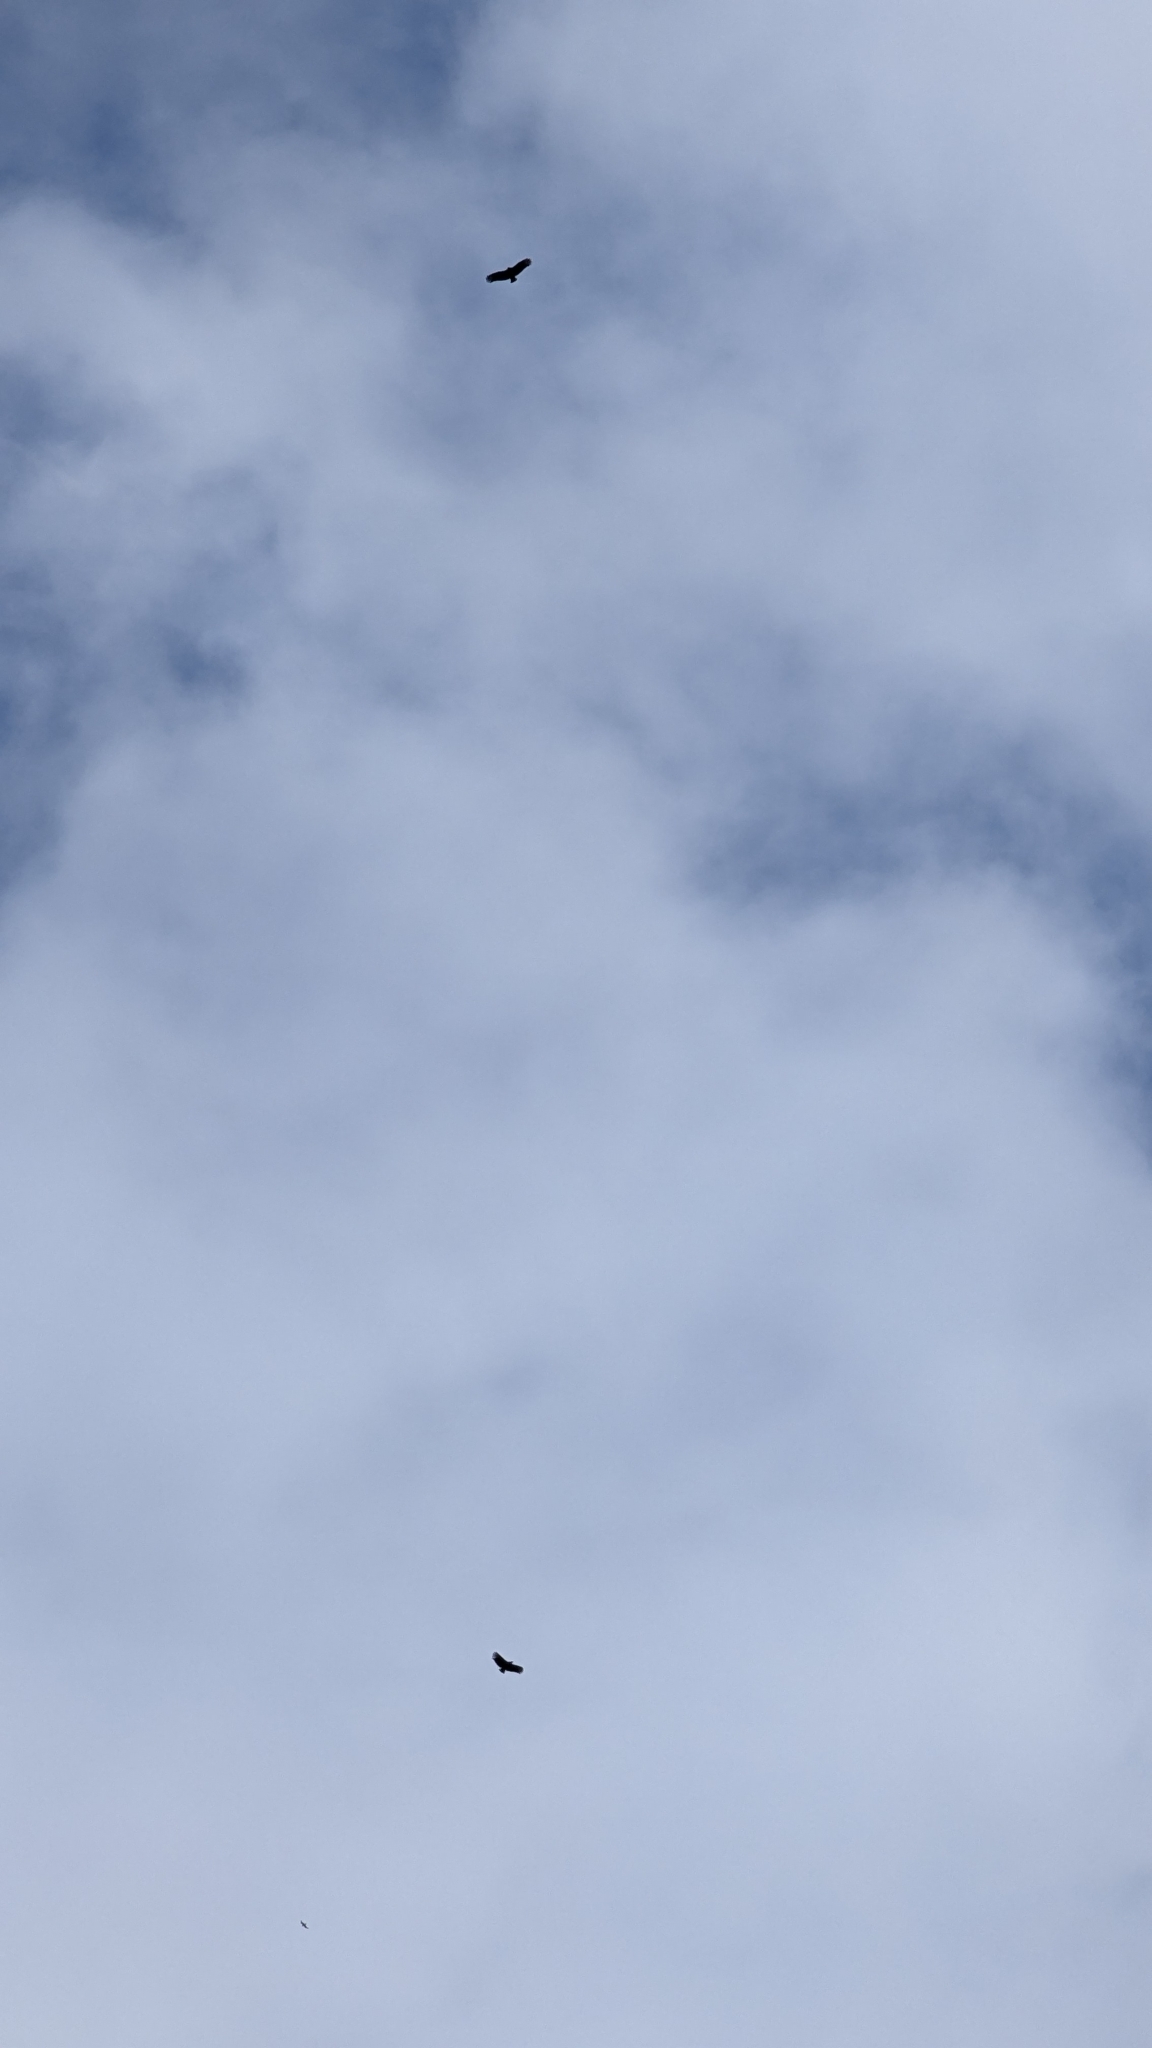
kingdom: Animalia
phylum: Chordata
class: Aves
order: Accipitriformes
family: Cathartidae
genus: Coragyps
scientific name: Coragyps atratus
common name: Black vulture
